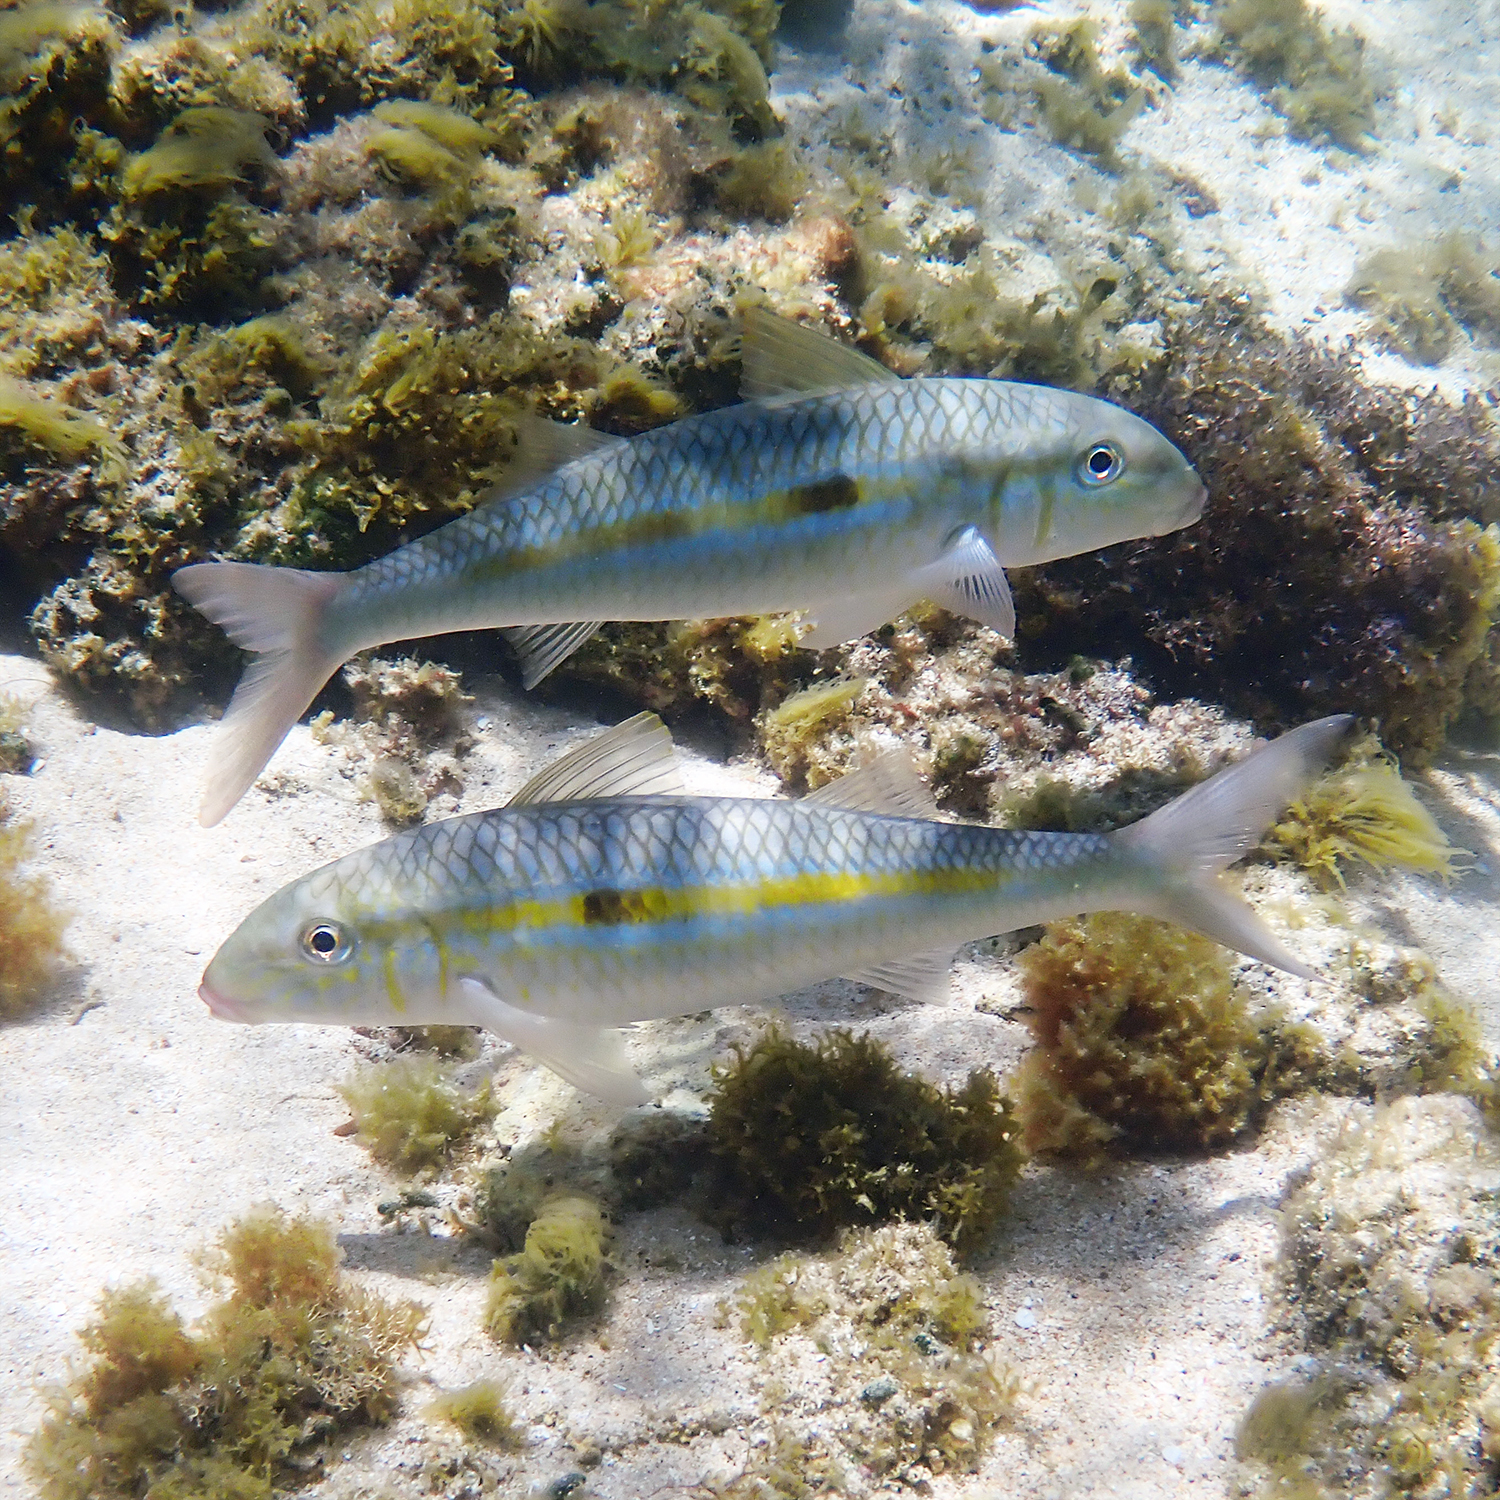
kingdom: Animalia
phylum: Chordata
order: Perciformes
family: Mullidae
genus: Mulloidichthys
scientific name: Mulloidichthys flavolineatus
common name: Yellowstripe goatfish
